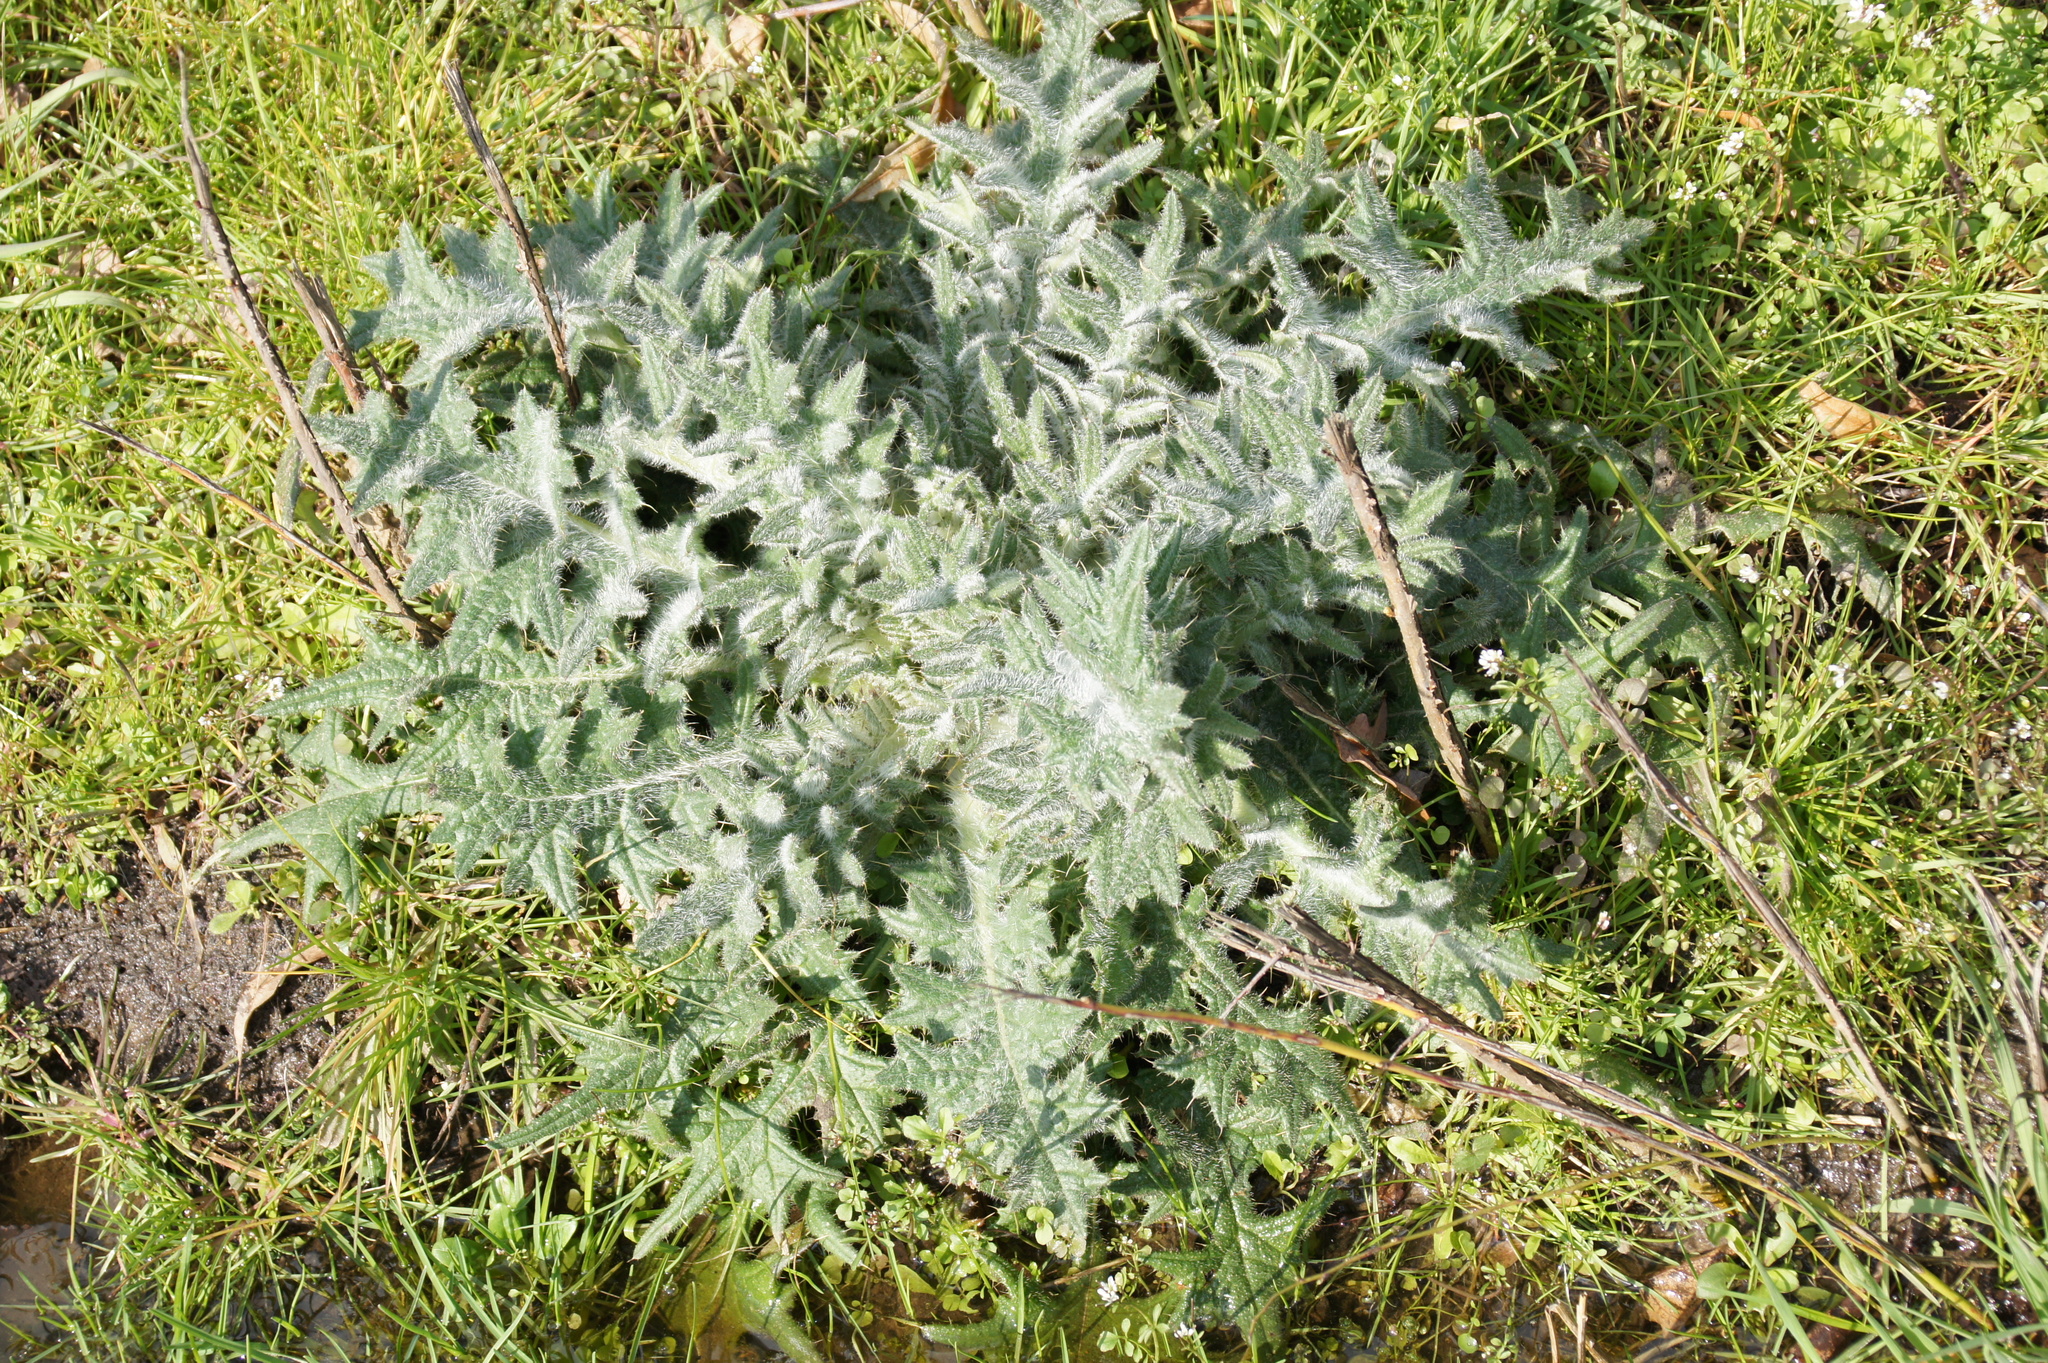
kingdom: Plantae
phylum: Tracheophyta
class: Magnoliopsida
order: Asterales
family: Asteraceae
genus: Cirsium
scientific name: Cirsium vulgare
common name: Bull thistle
